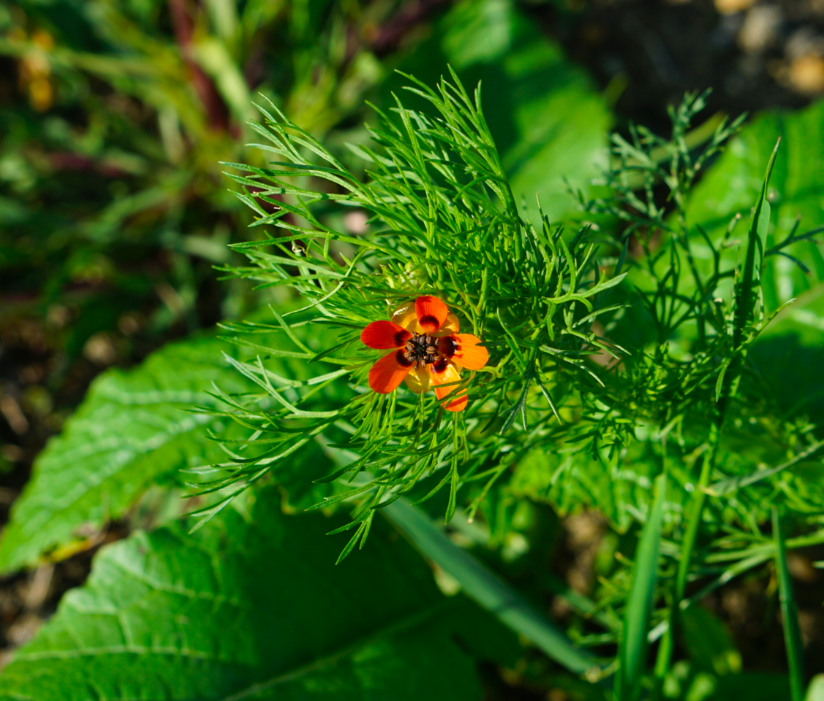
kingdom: Plantae
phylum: Tracheophyta
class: Magnoliopsida
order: Ranunculales
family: Ranunculaceae
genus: Adonis
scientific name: Adonis aestivalis
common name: Summer pheasant's-eye
